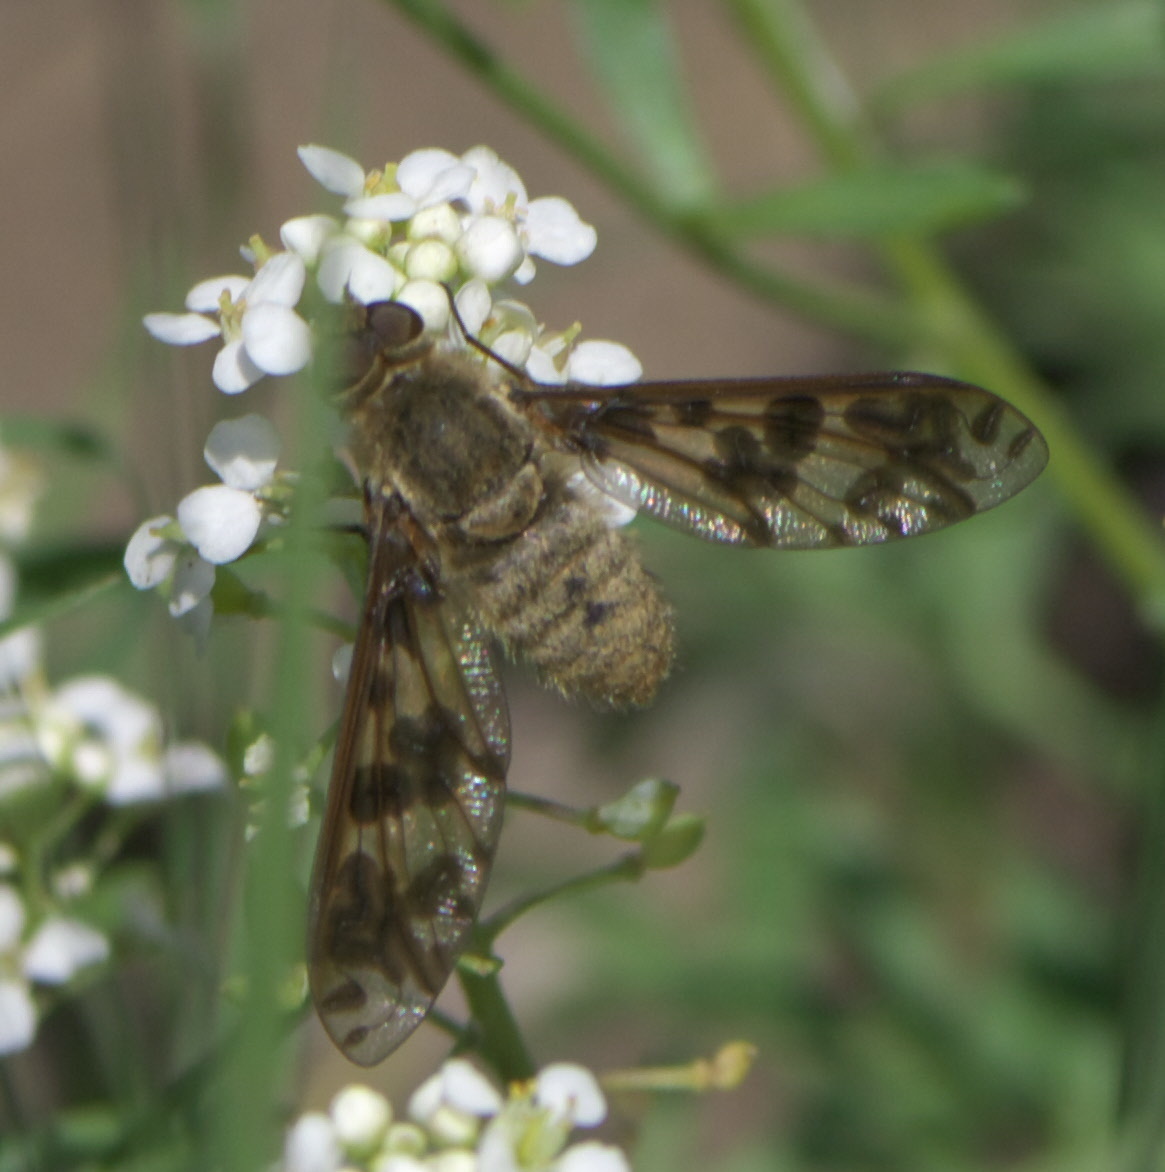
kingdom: Animalia
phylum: Arthropoda
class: Insecta
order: Diptera
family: Bombyliidae
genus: Dipalta
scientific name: Dipalta serpentina
